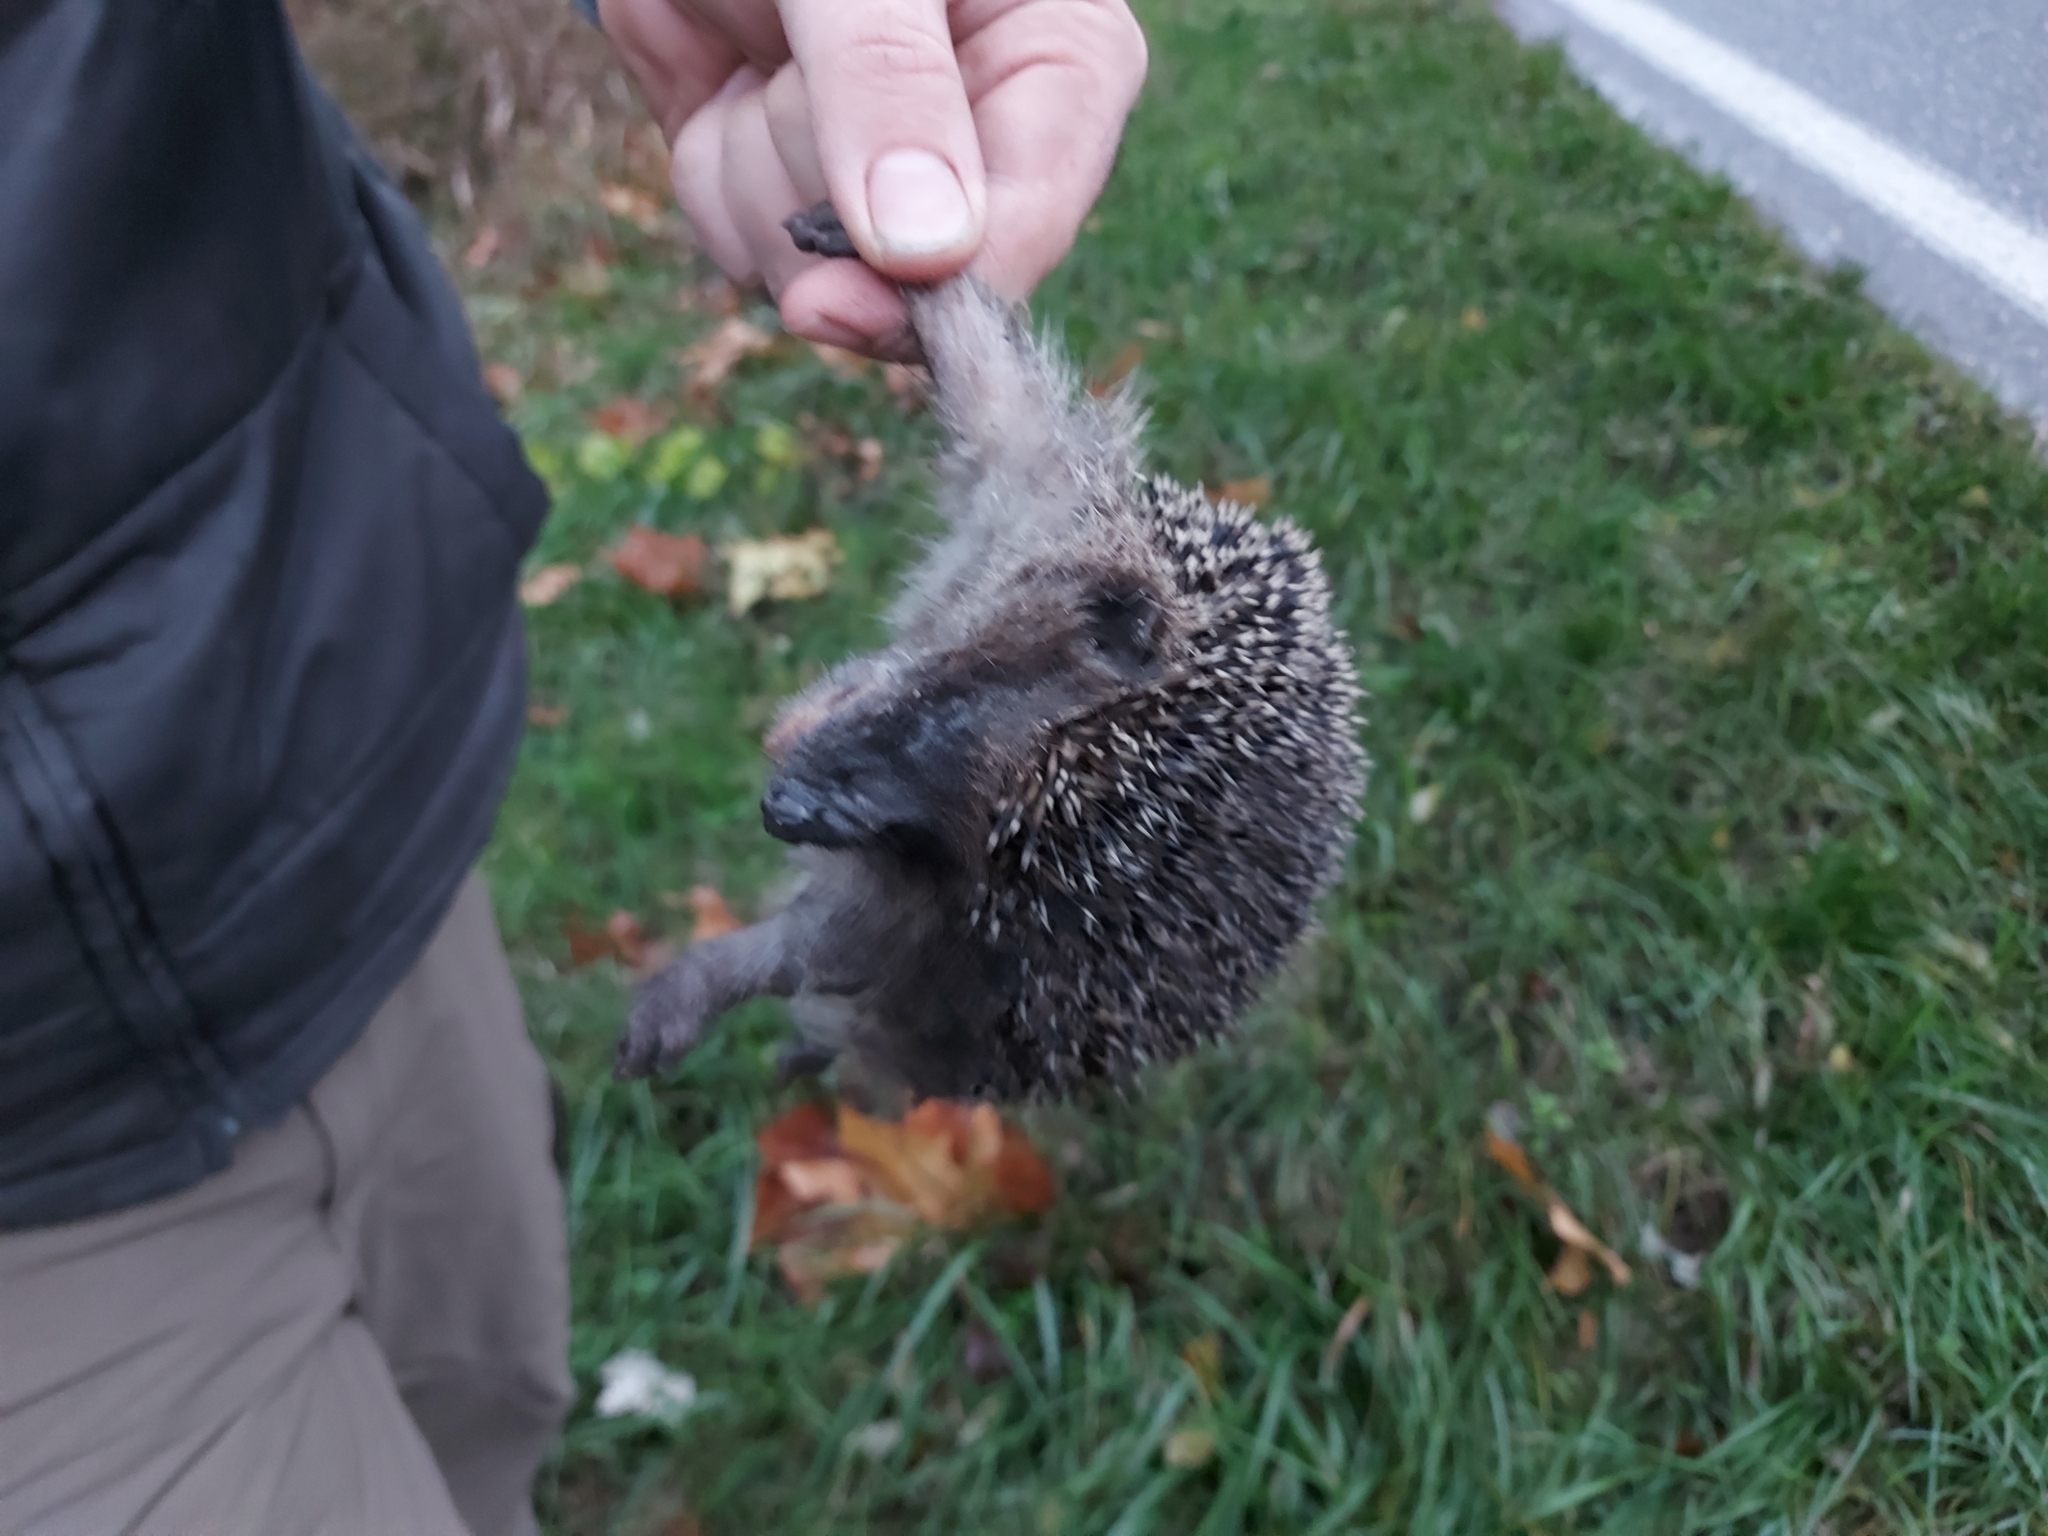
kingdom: Animalia
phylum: Chordata
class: Mammalia
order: Erinaceomorpha
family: Erinaceidae
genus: Erinaceus
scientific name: Erinaceus europaeus
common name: West european hedgehog
